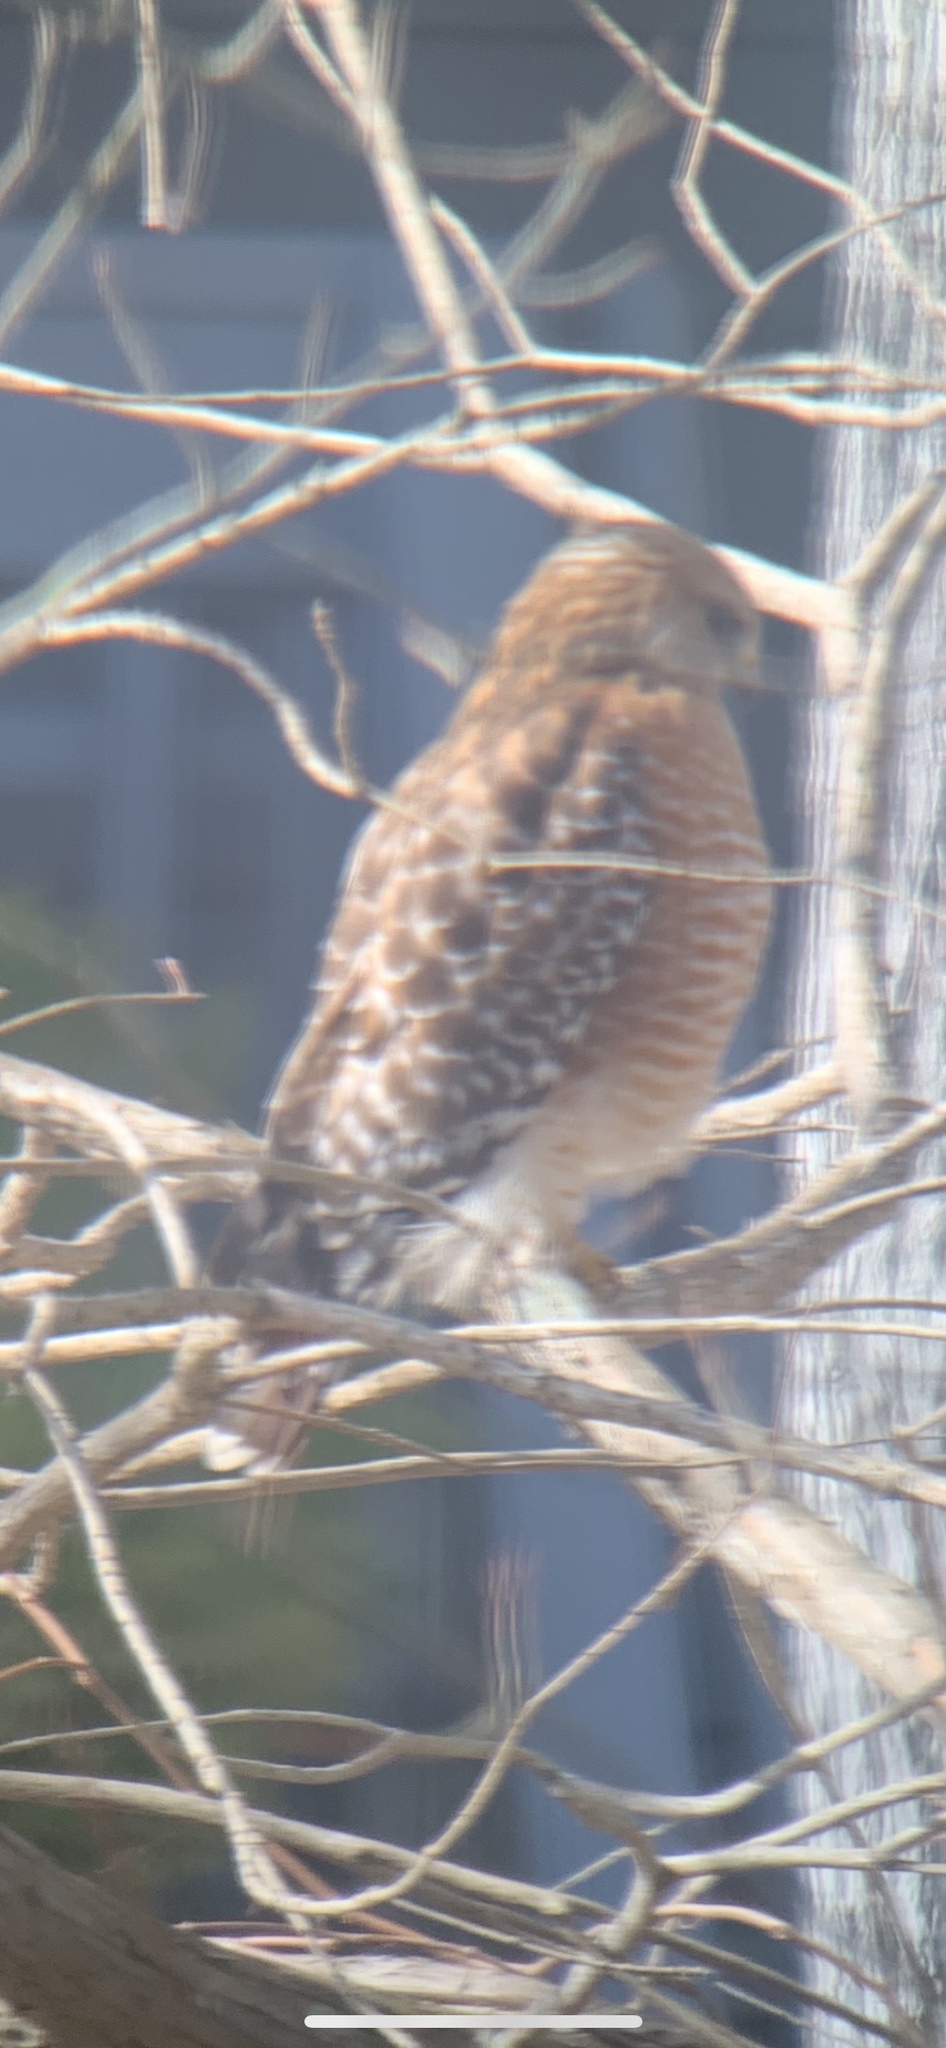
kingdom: Animalia
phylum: Chordata
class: Aves
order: Accipitriformes
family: Accipitridae
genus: Buteo
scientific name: Buteo lineatus
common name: Red-shouldered hawk
